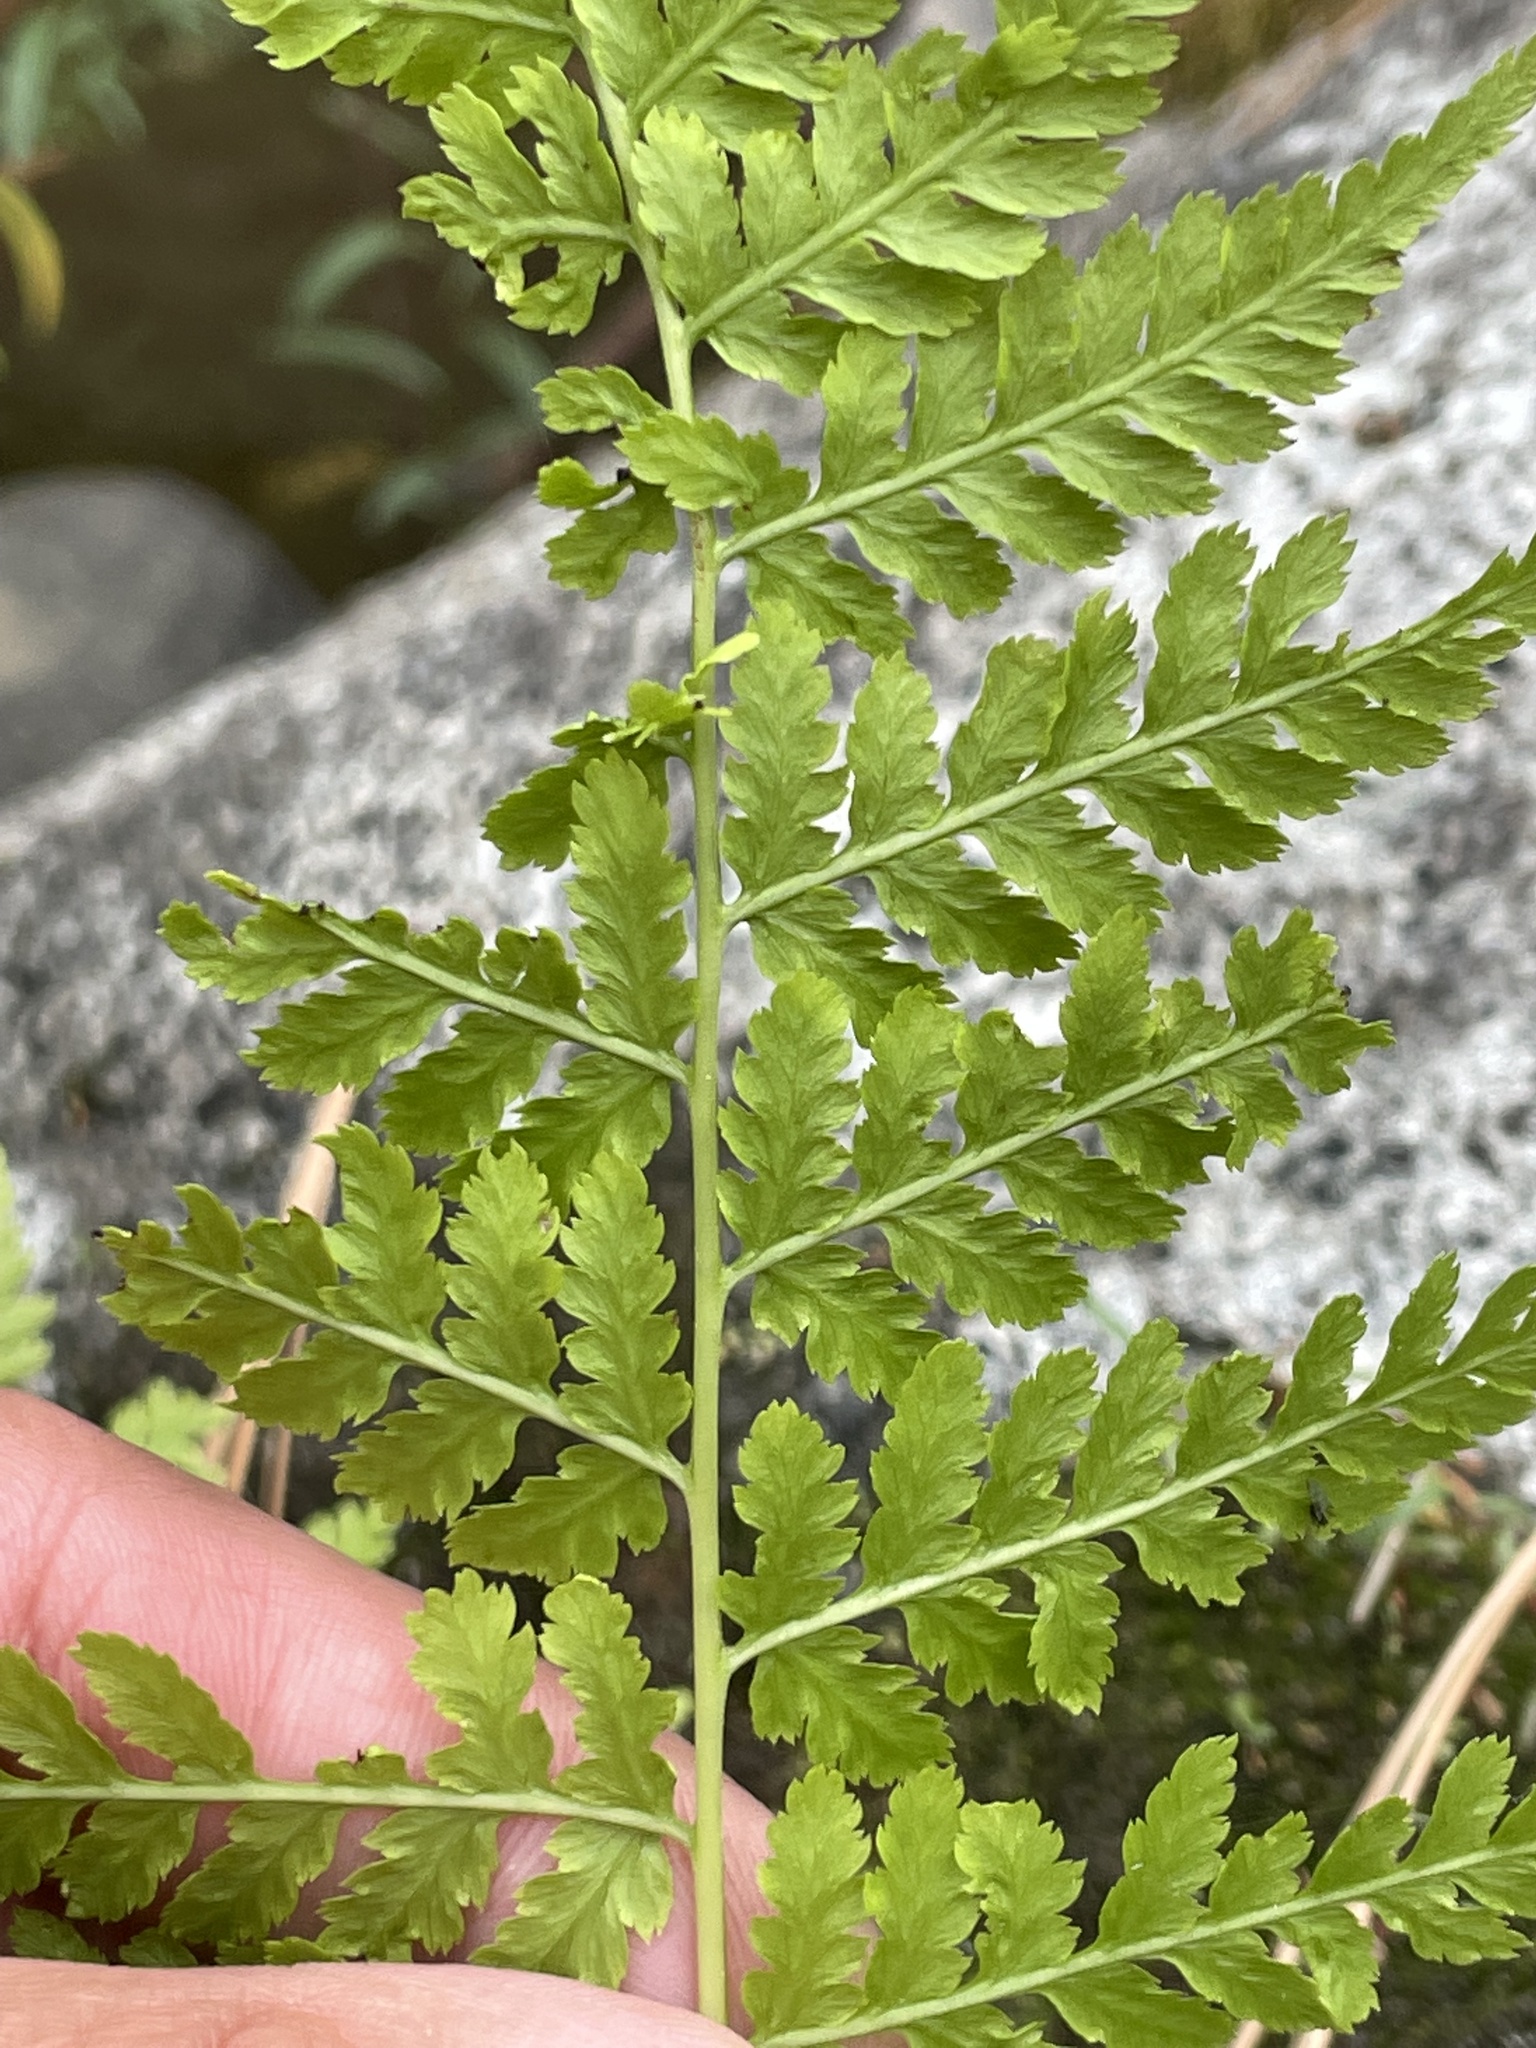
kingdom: Plantae
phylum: Tracheophyta
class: Polypodiopsida
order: Polypodiales
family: Cystopteridaceae
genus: Cystopteris
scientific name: Cystopteris fragilis
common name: Brittle bladder fern
